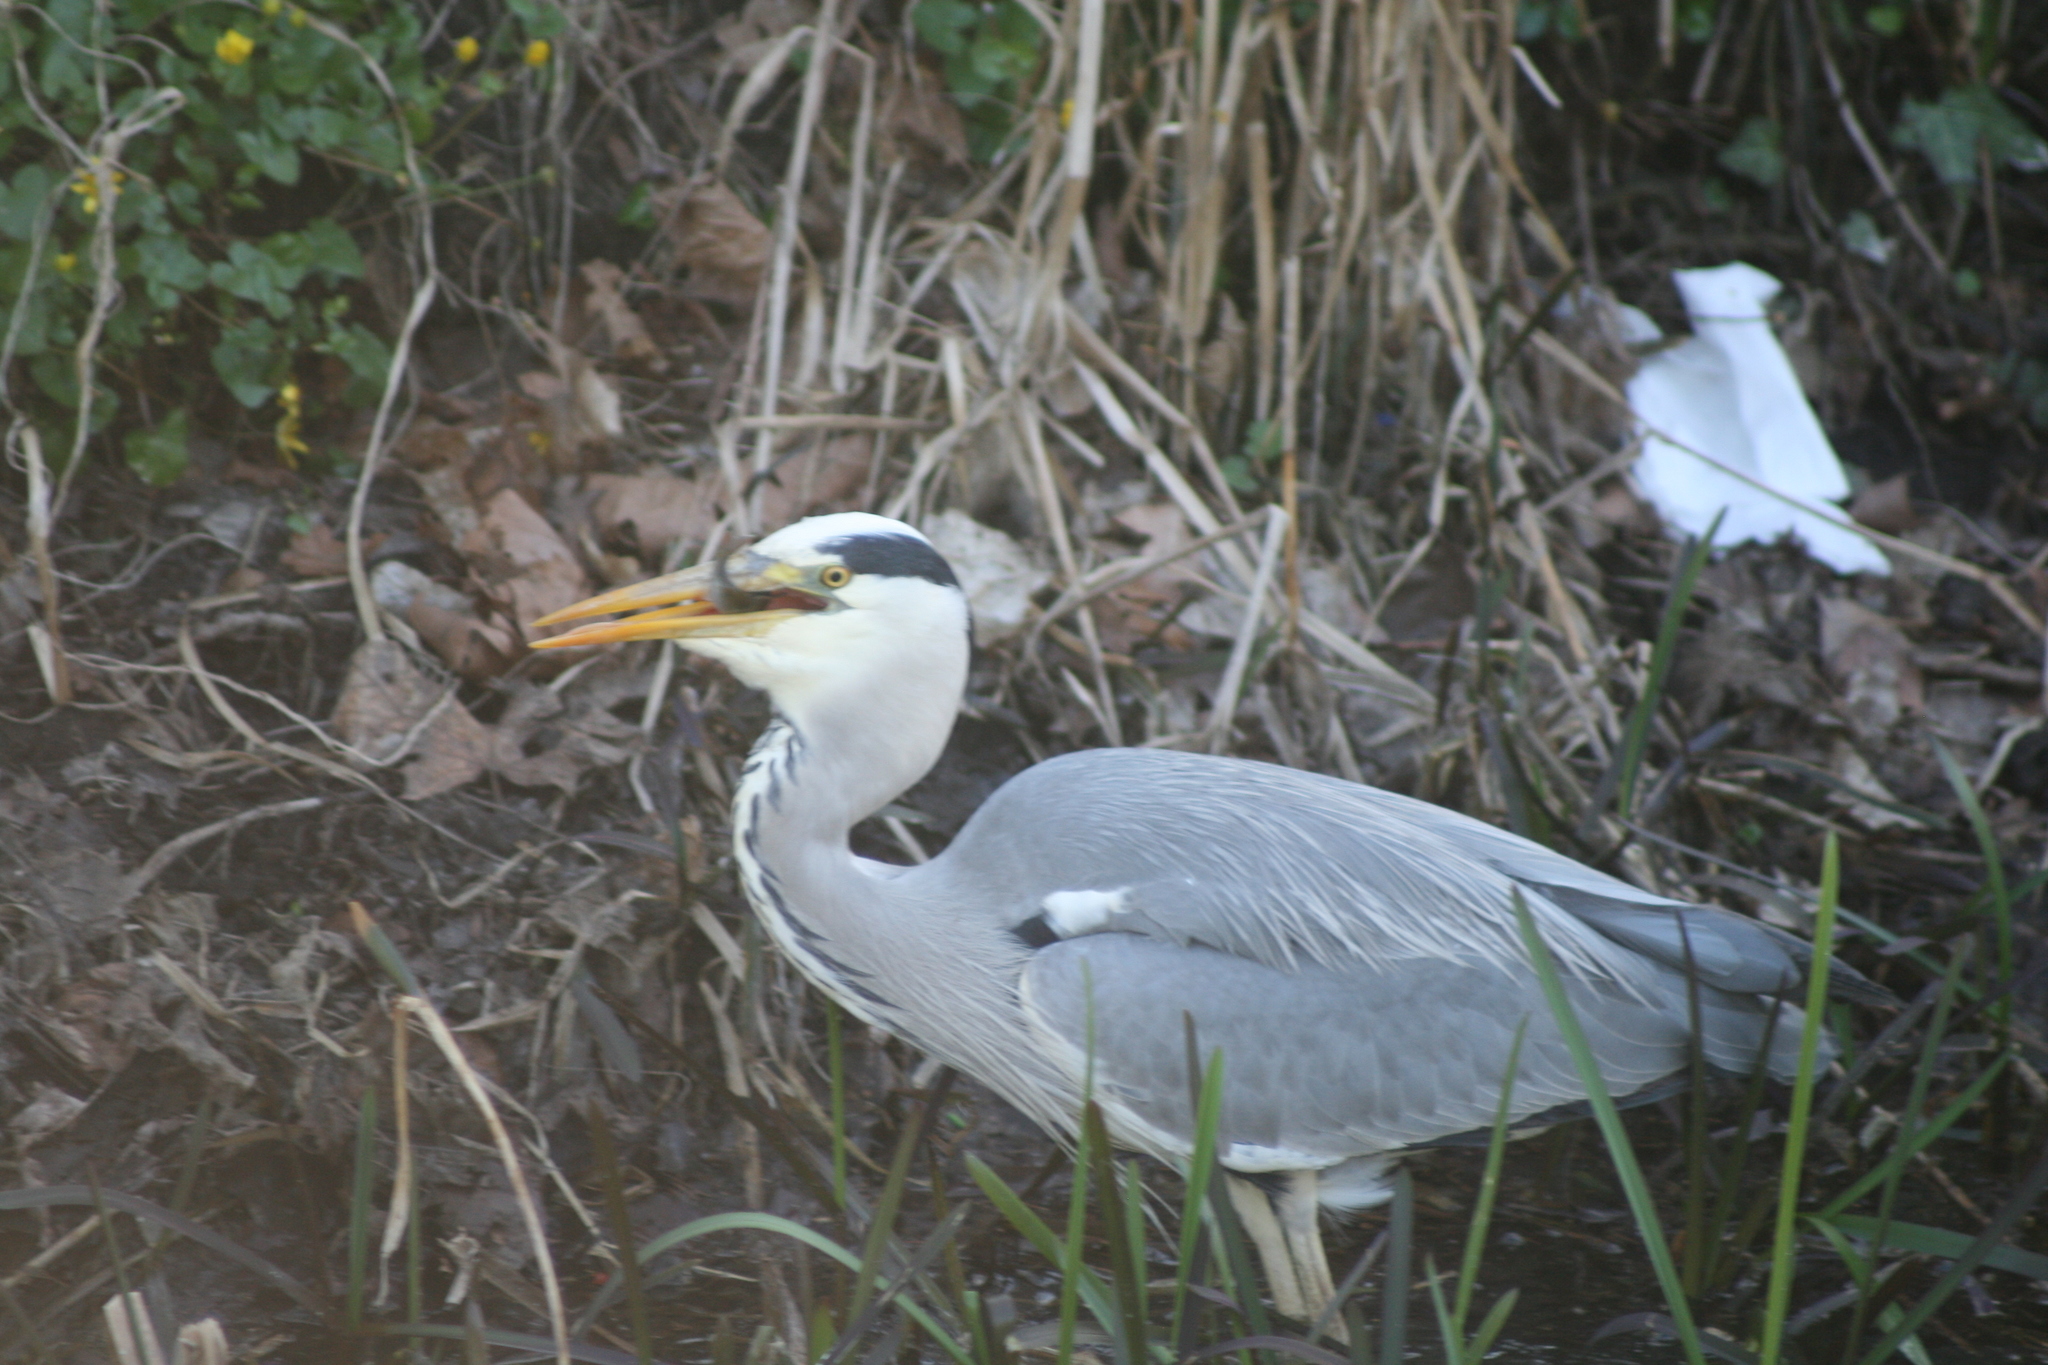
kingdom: Animalia
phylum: Chordata
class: Aves
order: Pelecaniformes
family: Ardeidae
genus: Ardea
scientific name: Ardea cinerea
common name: Grey heron
